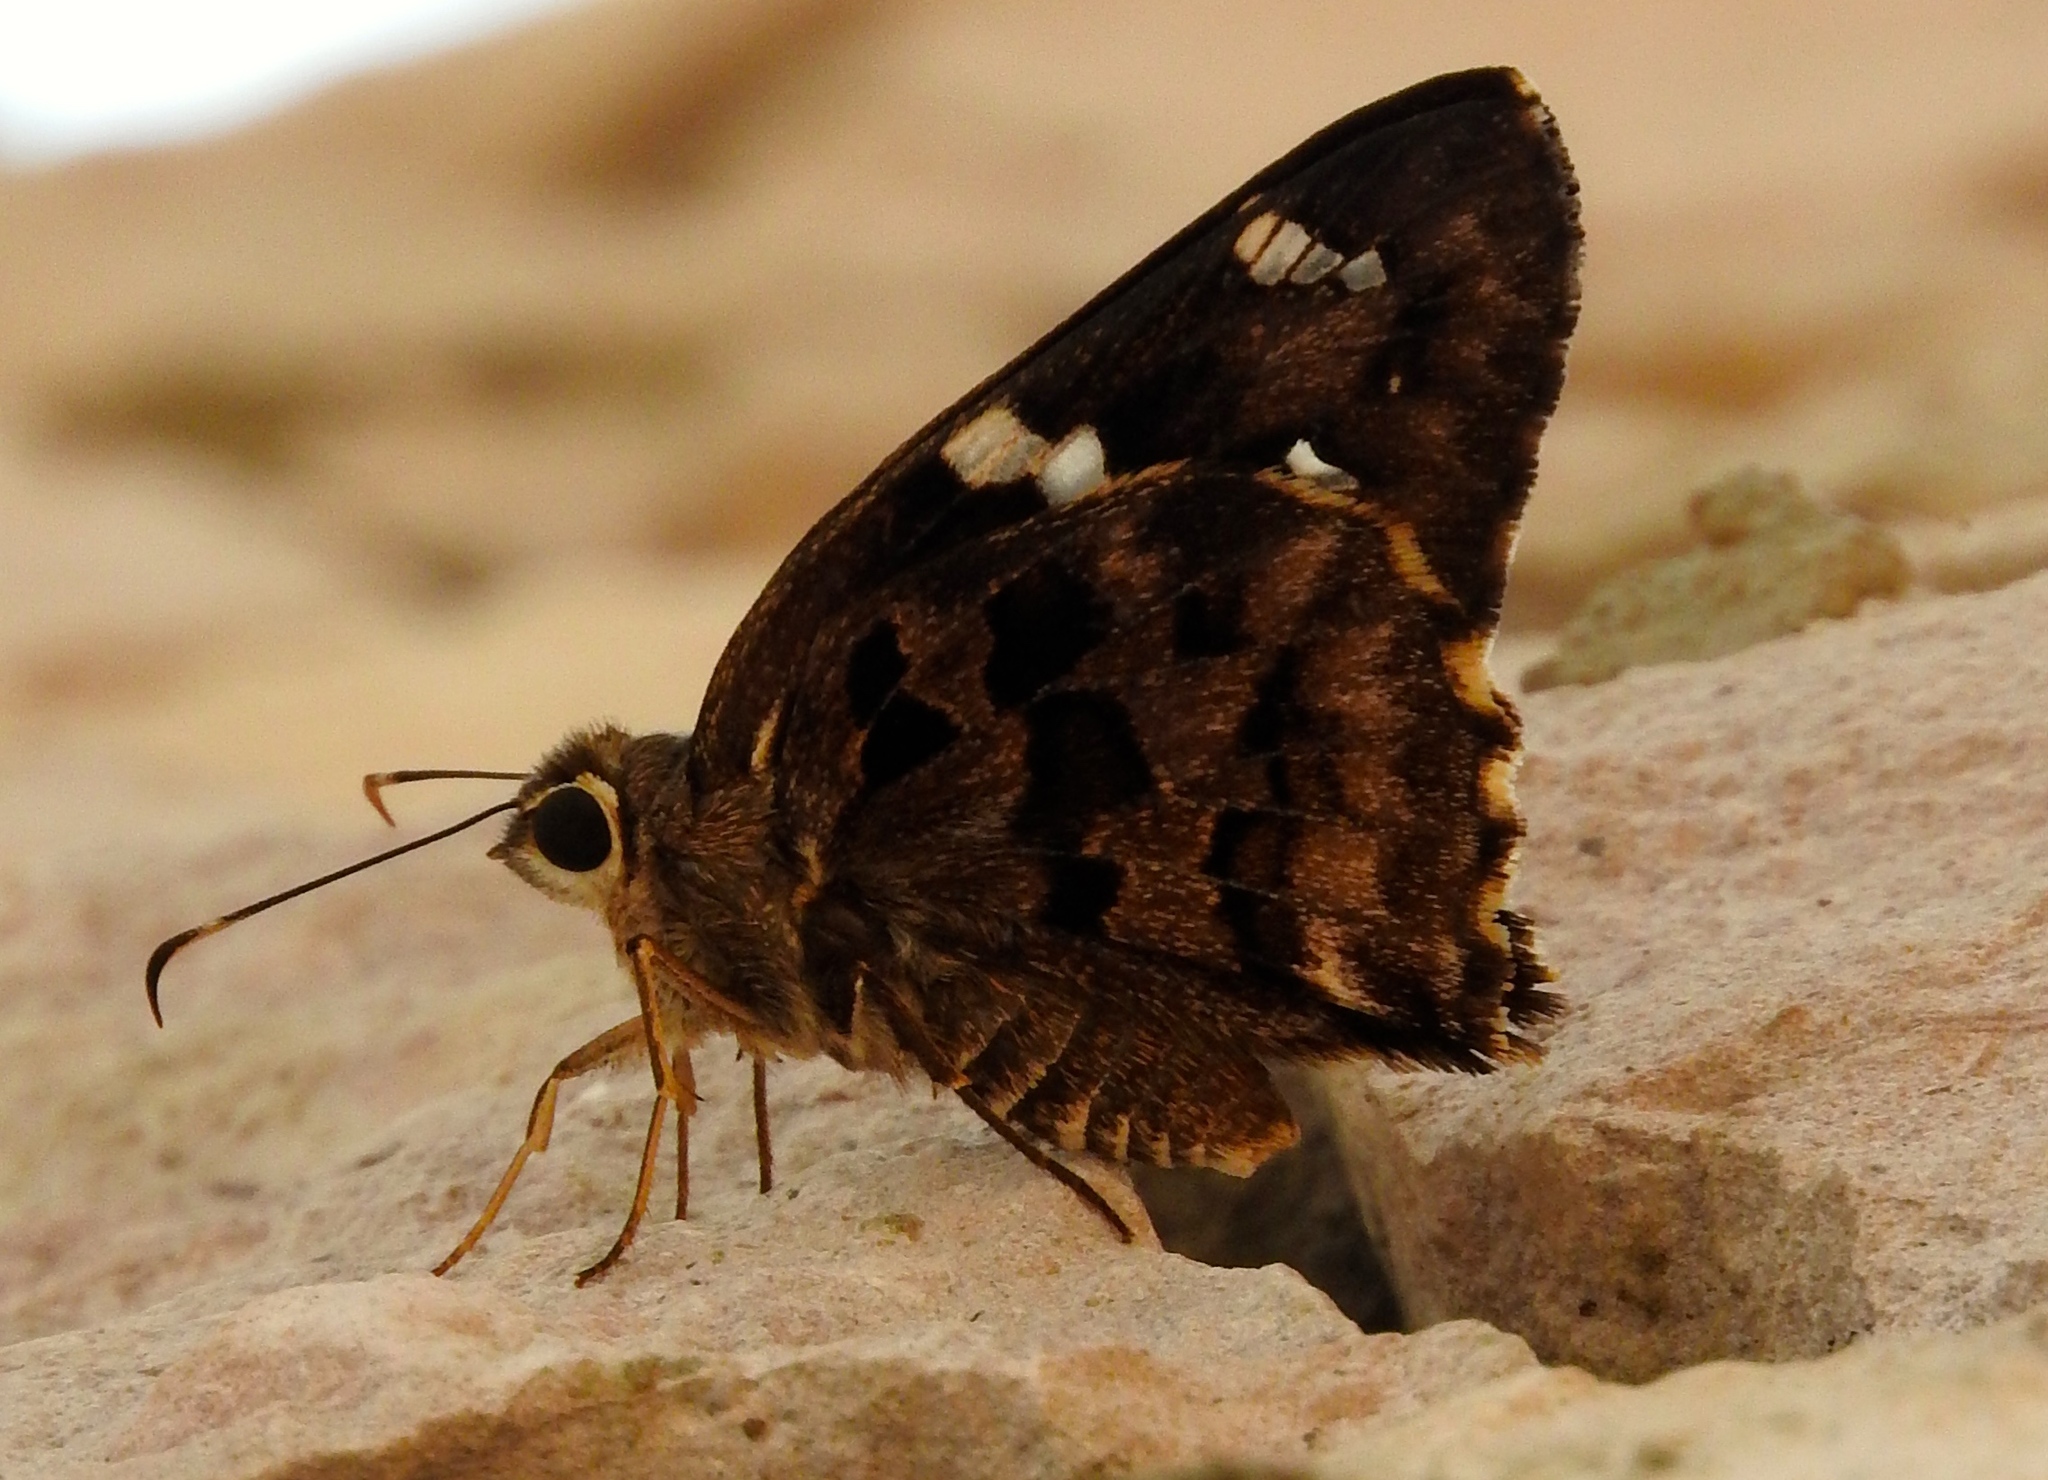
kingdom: Animalia
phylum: Arthropoda
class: Insecta
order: Lepidoptera
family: Hesperiidae
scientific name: Hesperiidae
